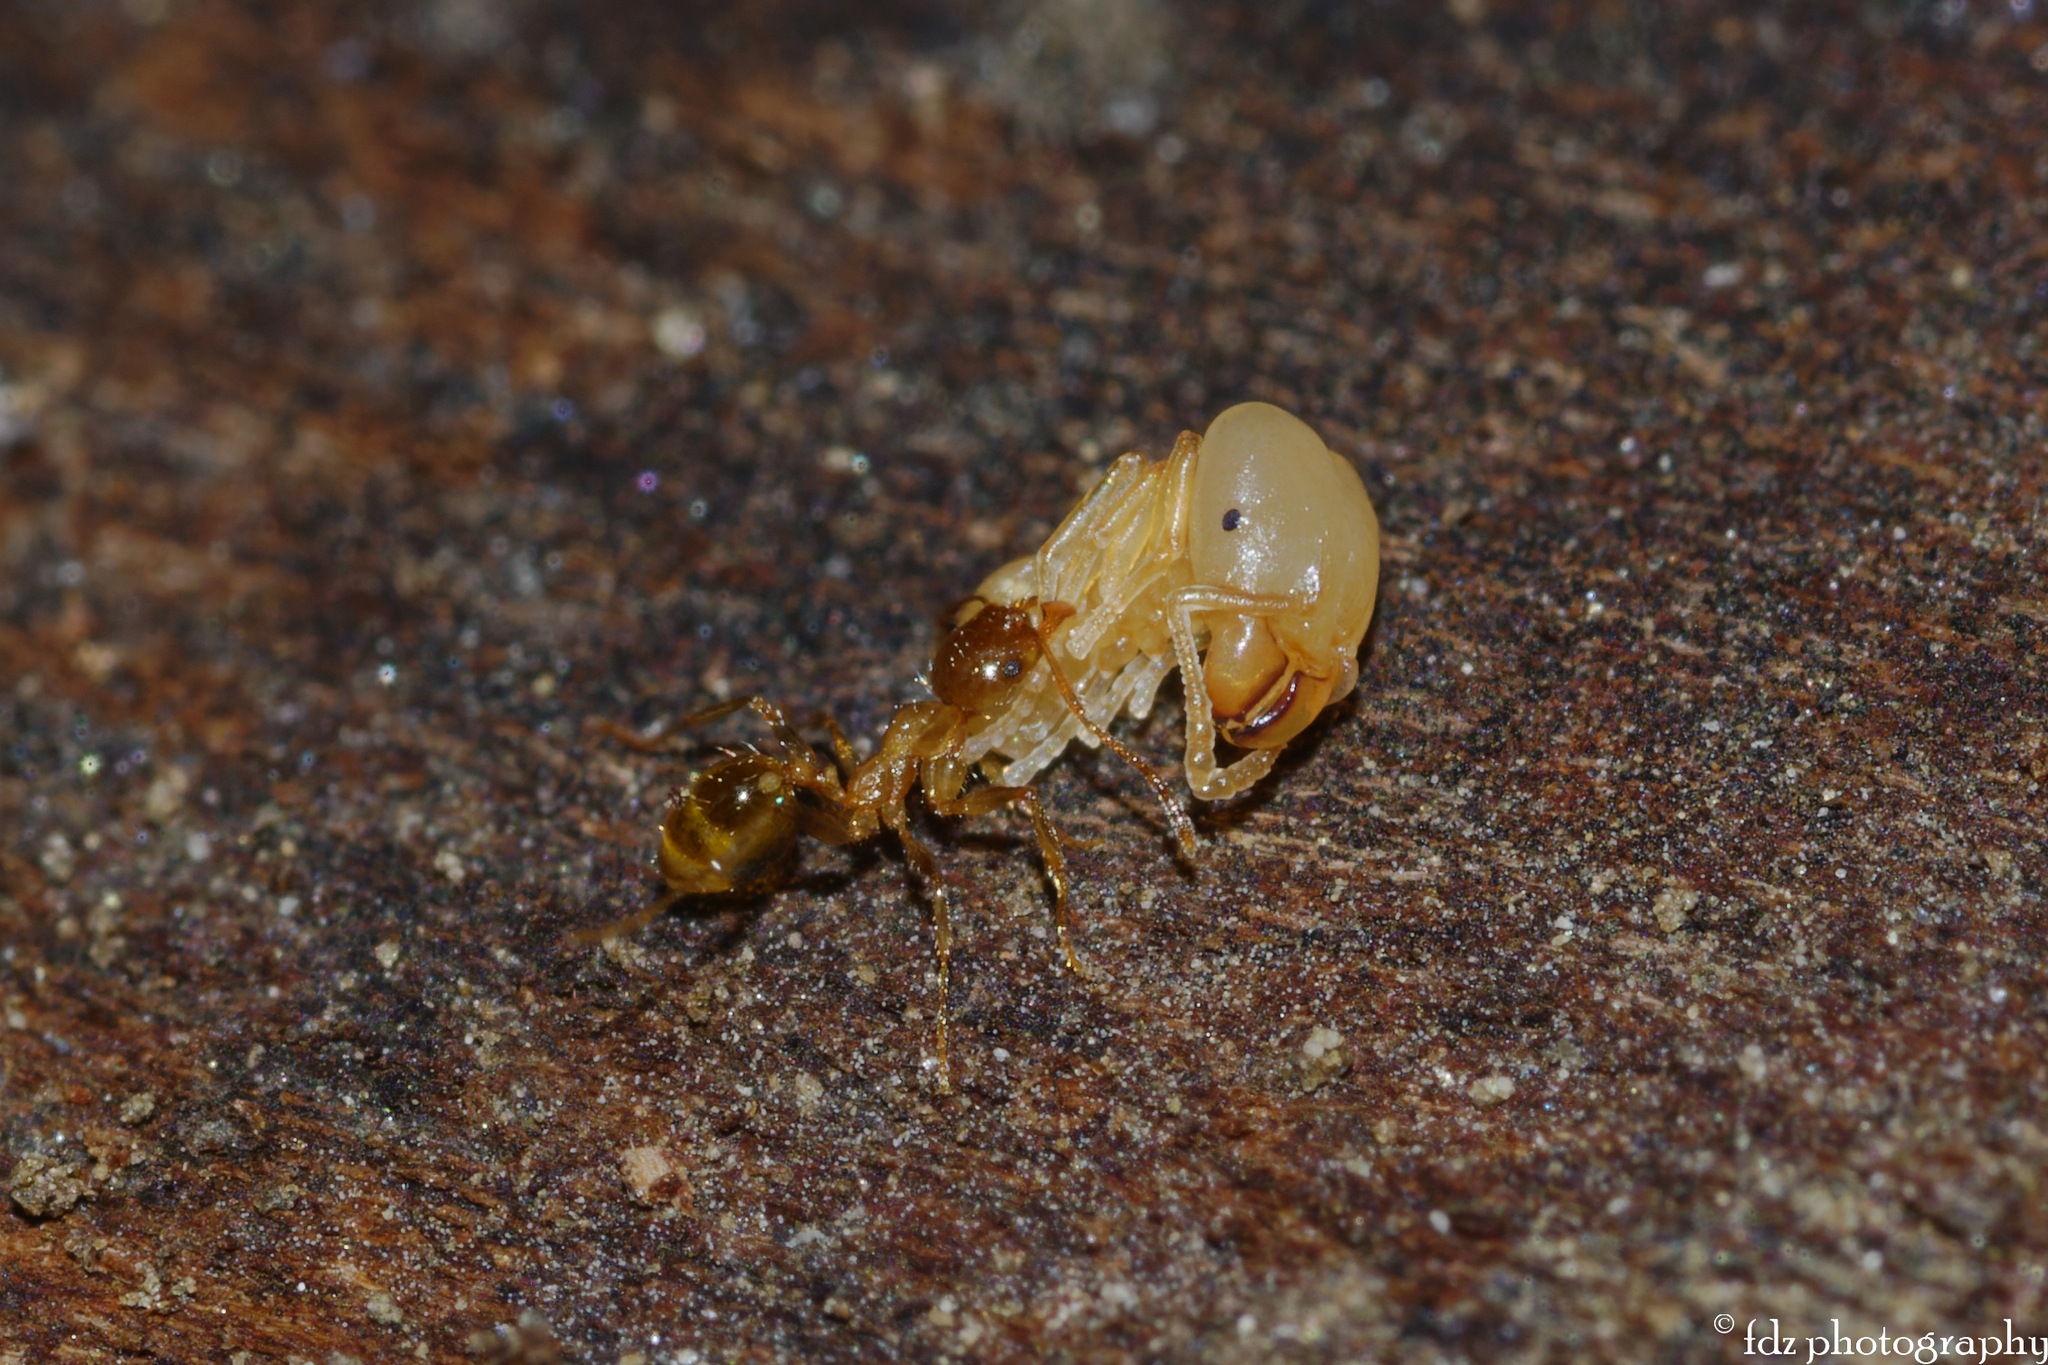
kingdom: Animalia
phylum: Arthropoda
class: Insecta
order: Hymenoptera
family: Formicidae
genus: Pheidole
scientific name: Pheidole pallidula
